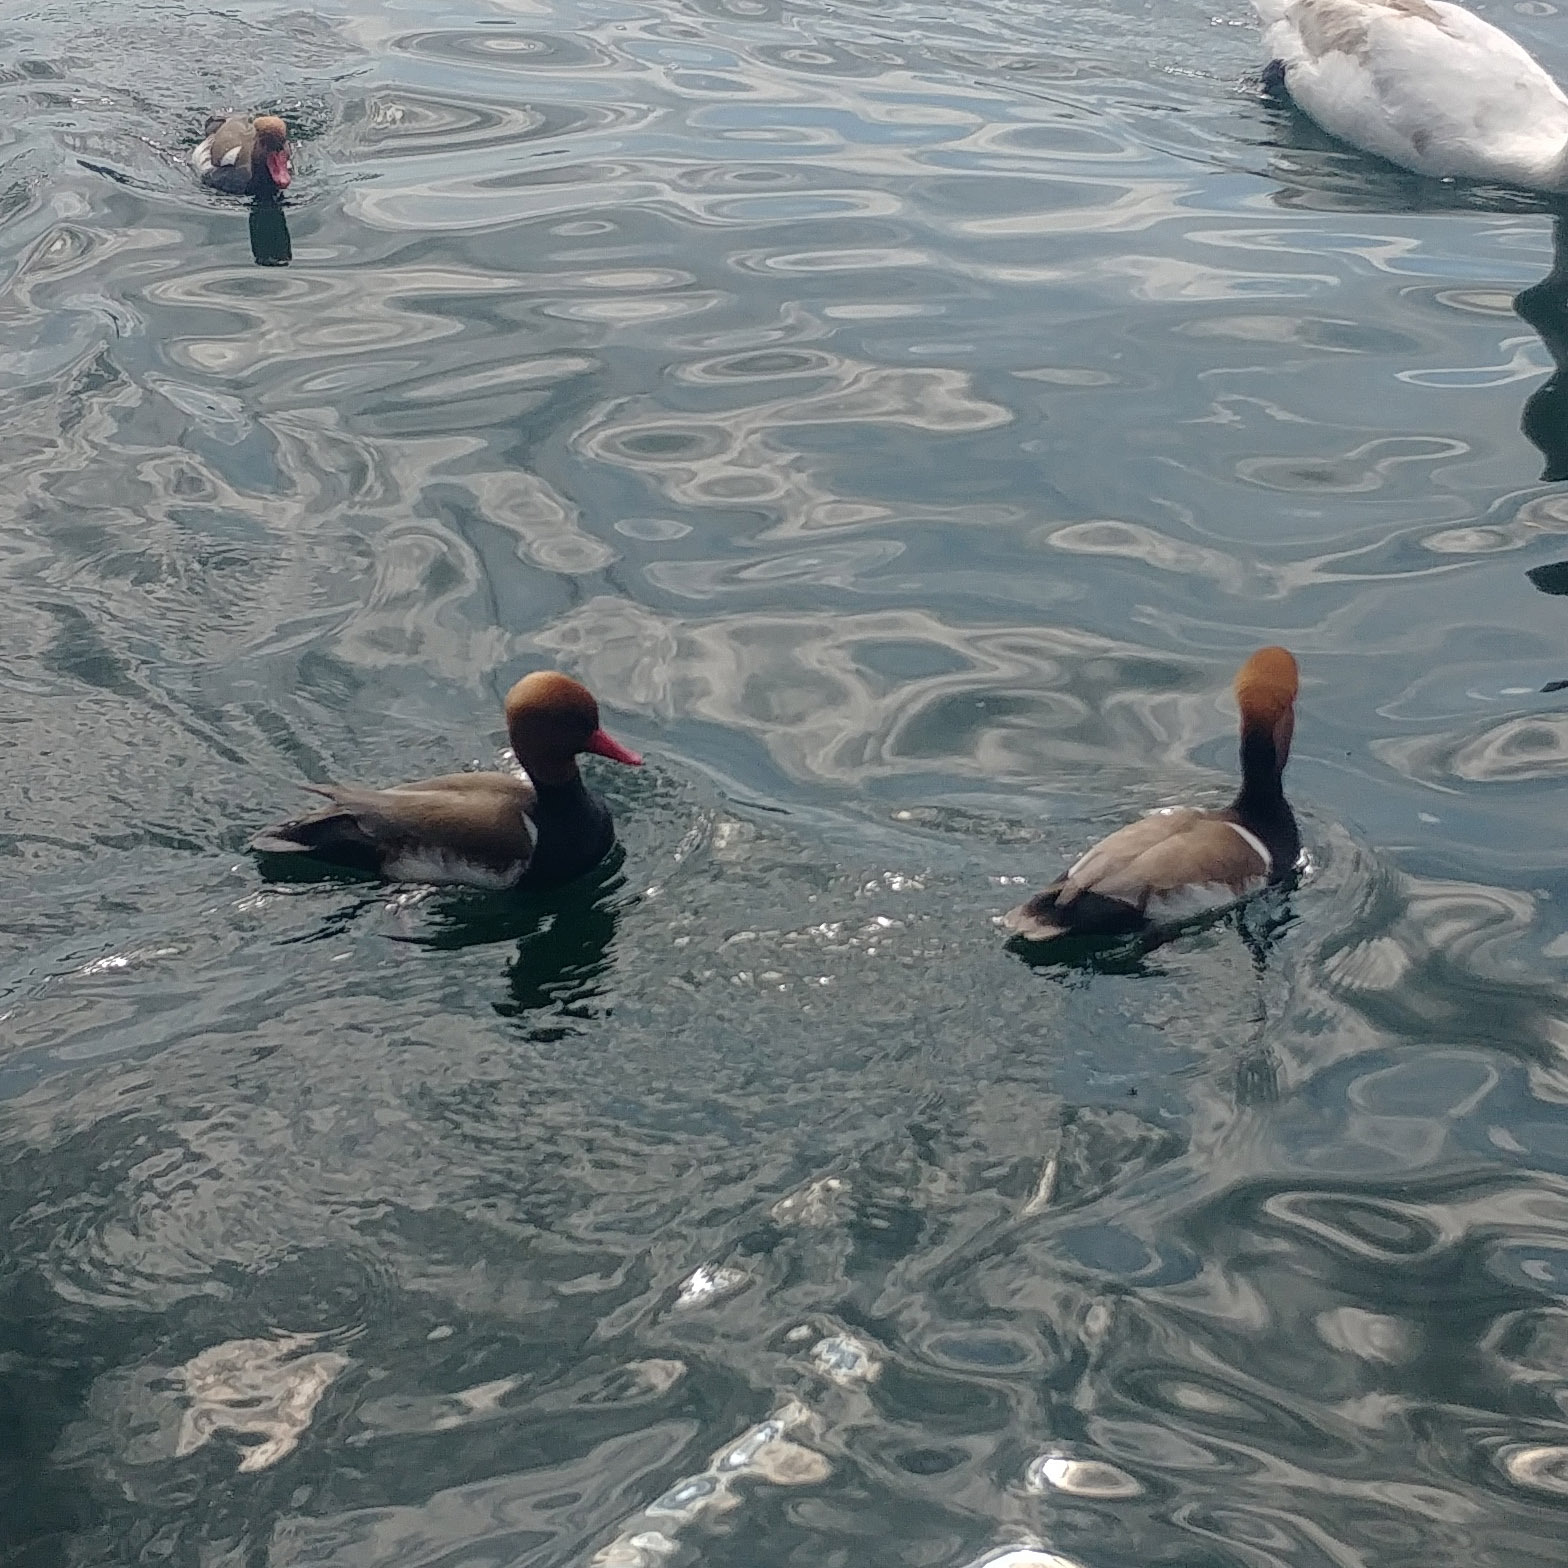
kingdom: Animalia
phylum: Chordata
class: Aves
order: Anseriformes
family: Anatidae
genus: Netta
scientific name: Netta rufina
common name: Red-crested pochard
